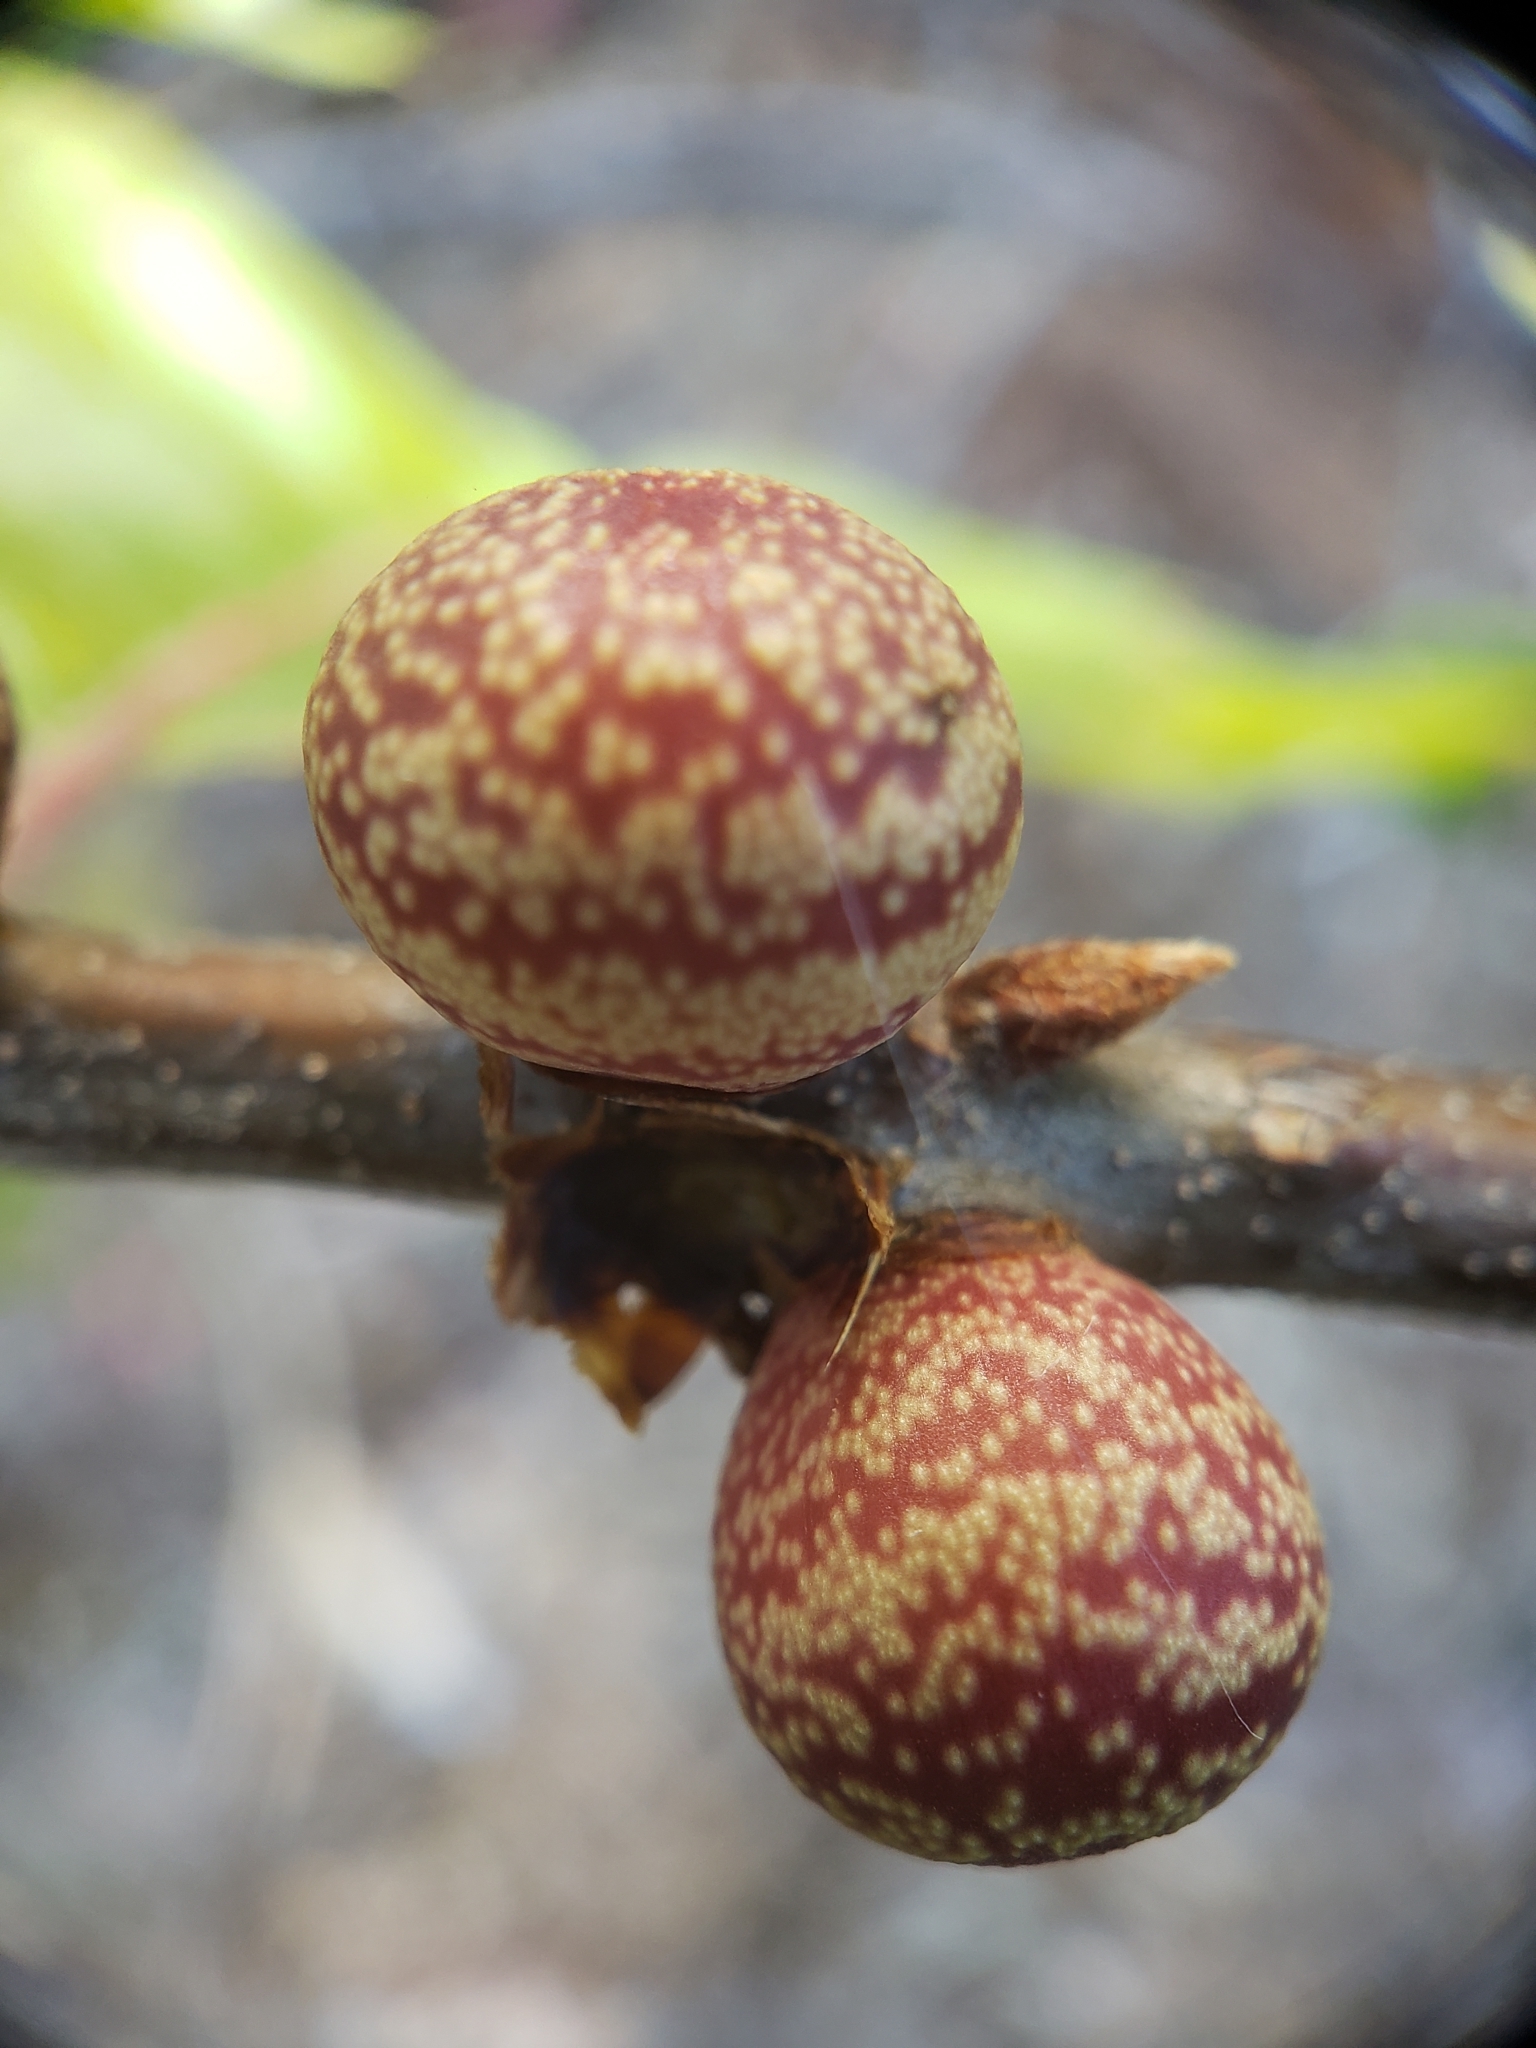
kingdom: Animalia
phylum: Arthropoda
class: Insecta
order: Hymenoptera
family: Cynipidae
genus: Kokkocynips
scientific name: Kokkocynips imbricariae
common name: Banded bullet gall wasp
